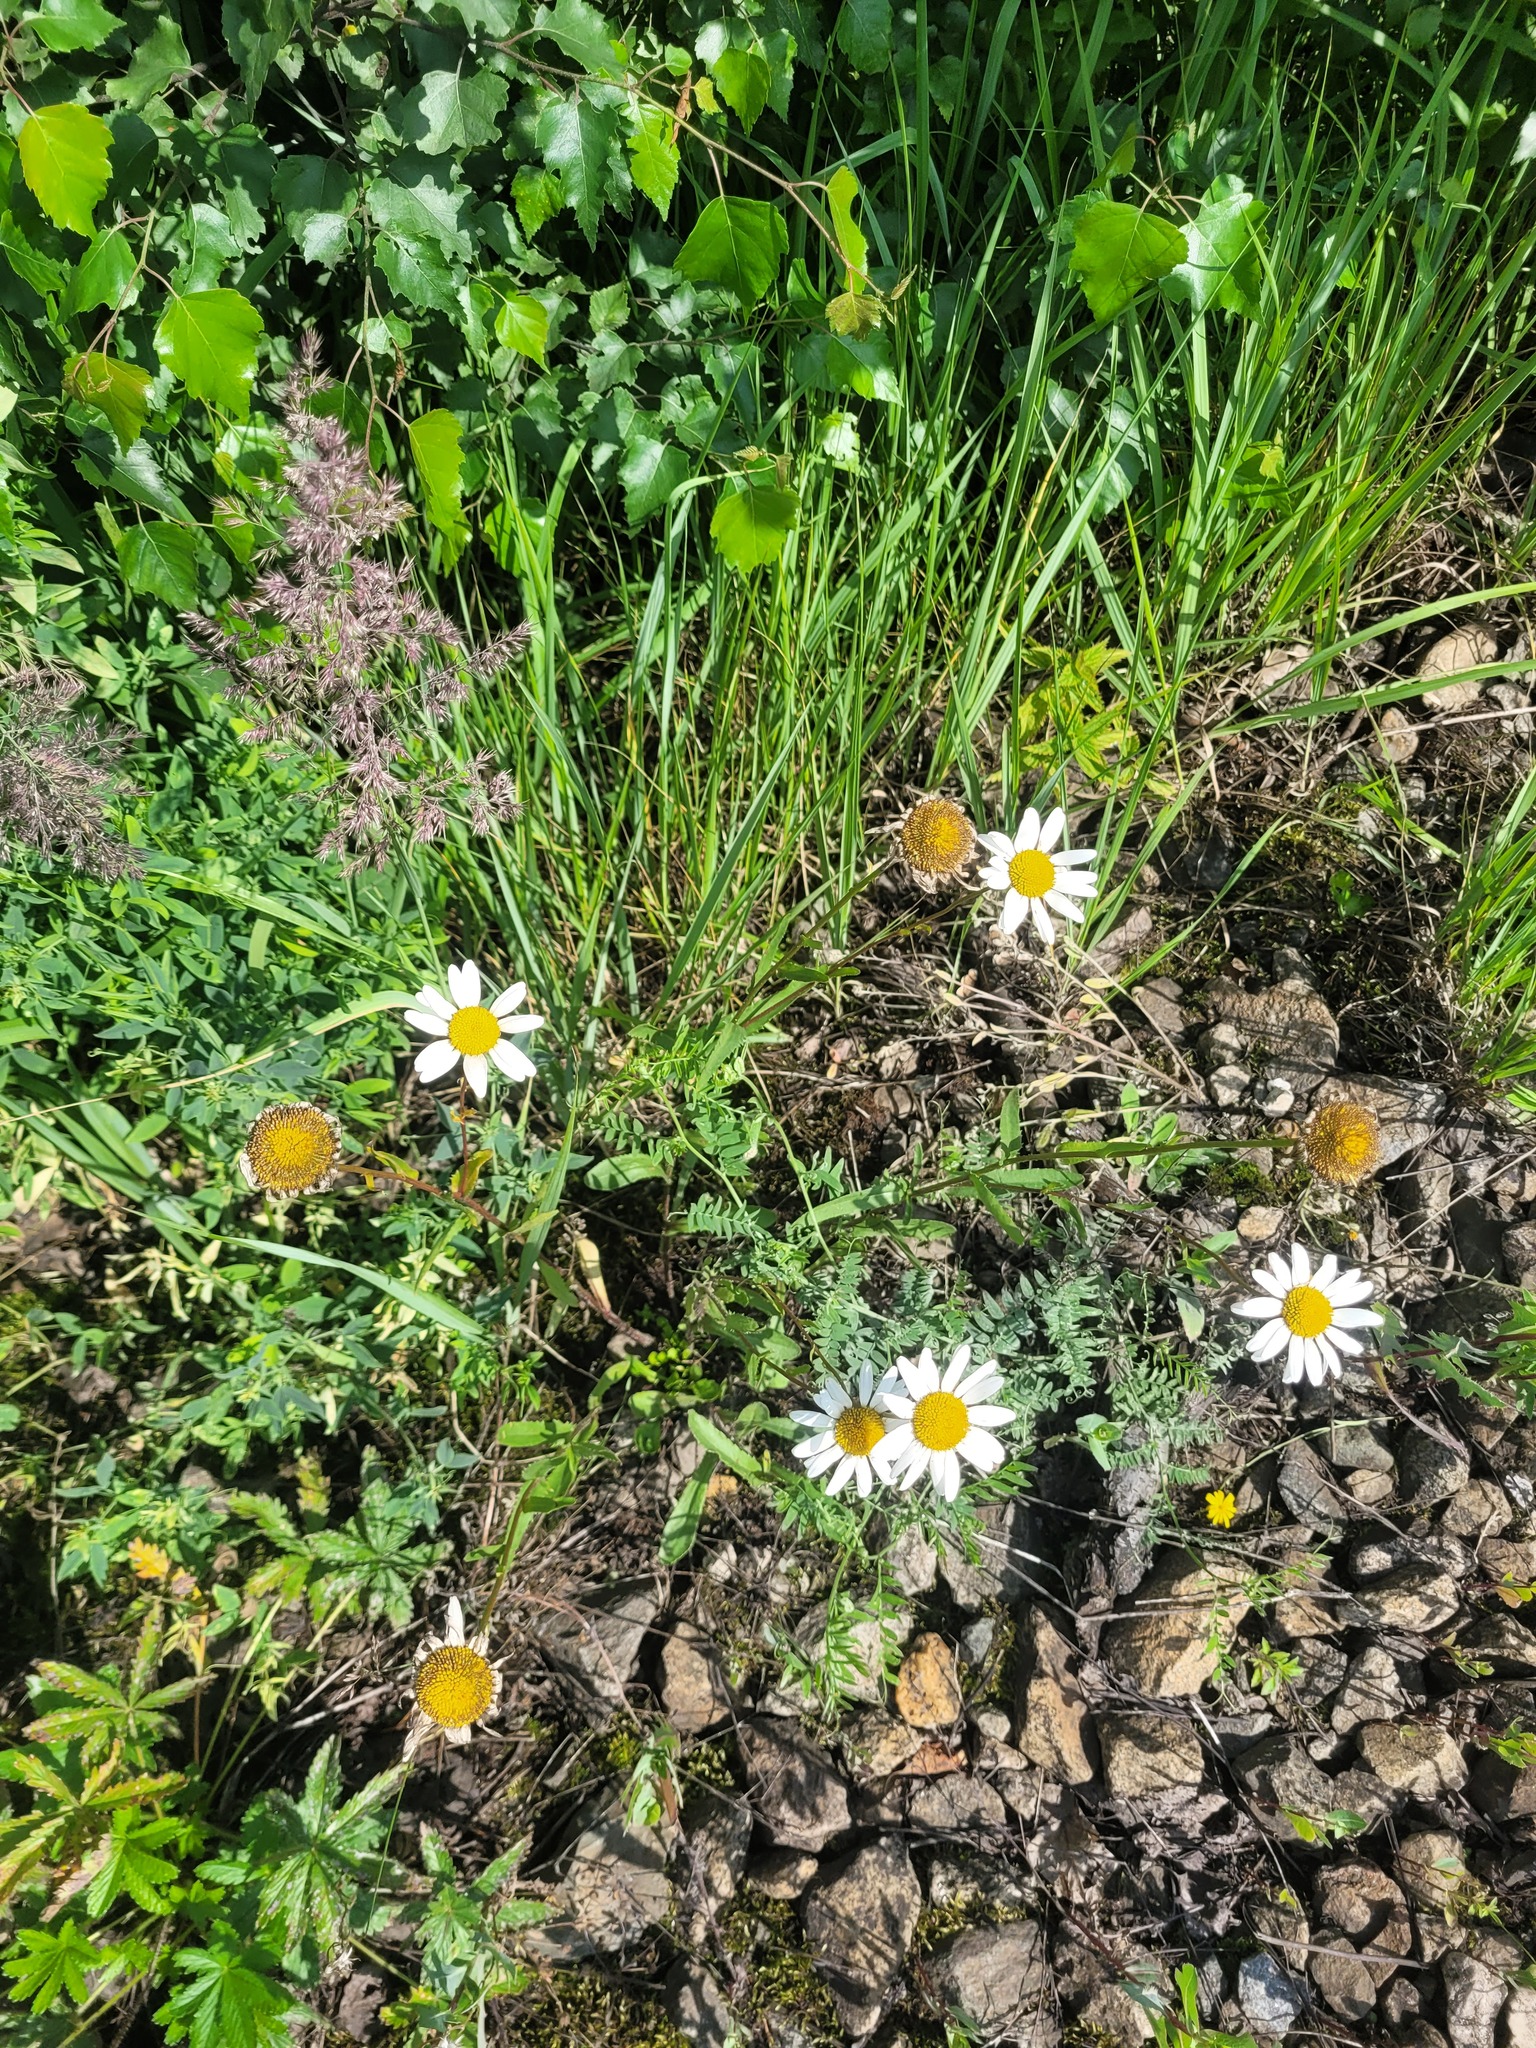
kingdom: Plantae
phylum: Tracheophyta
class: Magnoliopsida
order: Asterales
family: Asteraceae
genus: Leucanthemum
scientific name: Leucanthemum vulgare
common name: Oxeye daisy
